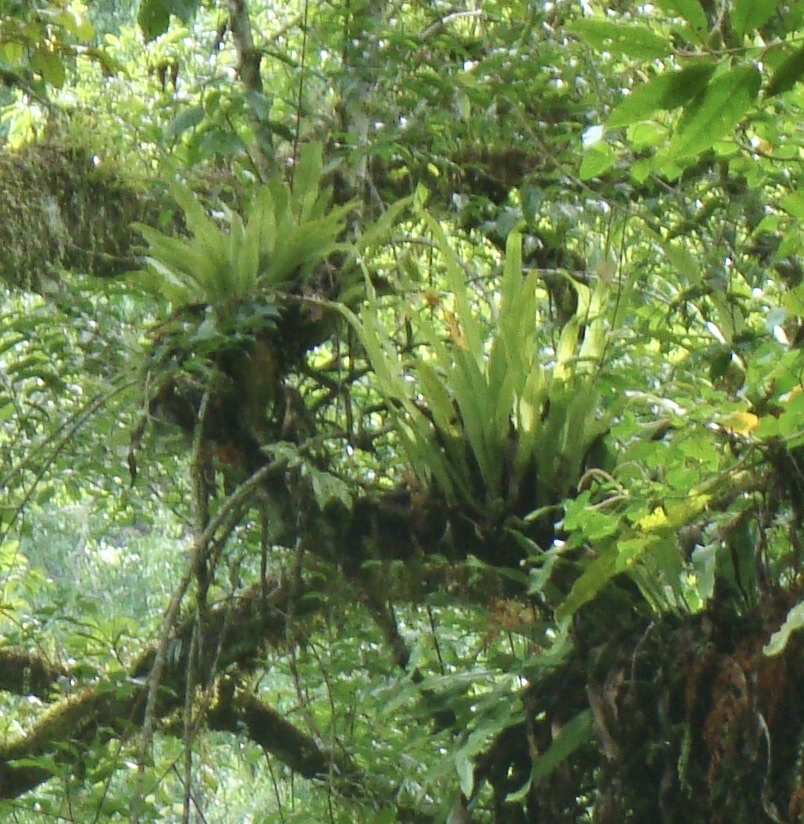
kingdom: Plantae
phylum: Tracheophyta
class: Polypodiopsida
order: Polypodiales
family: Aspleniaceae
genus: Asplenium
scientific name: Asplenium nidus
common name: Bird's-nest fern
